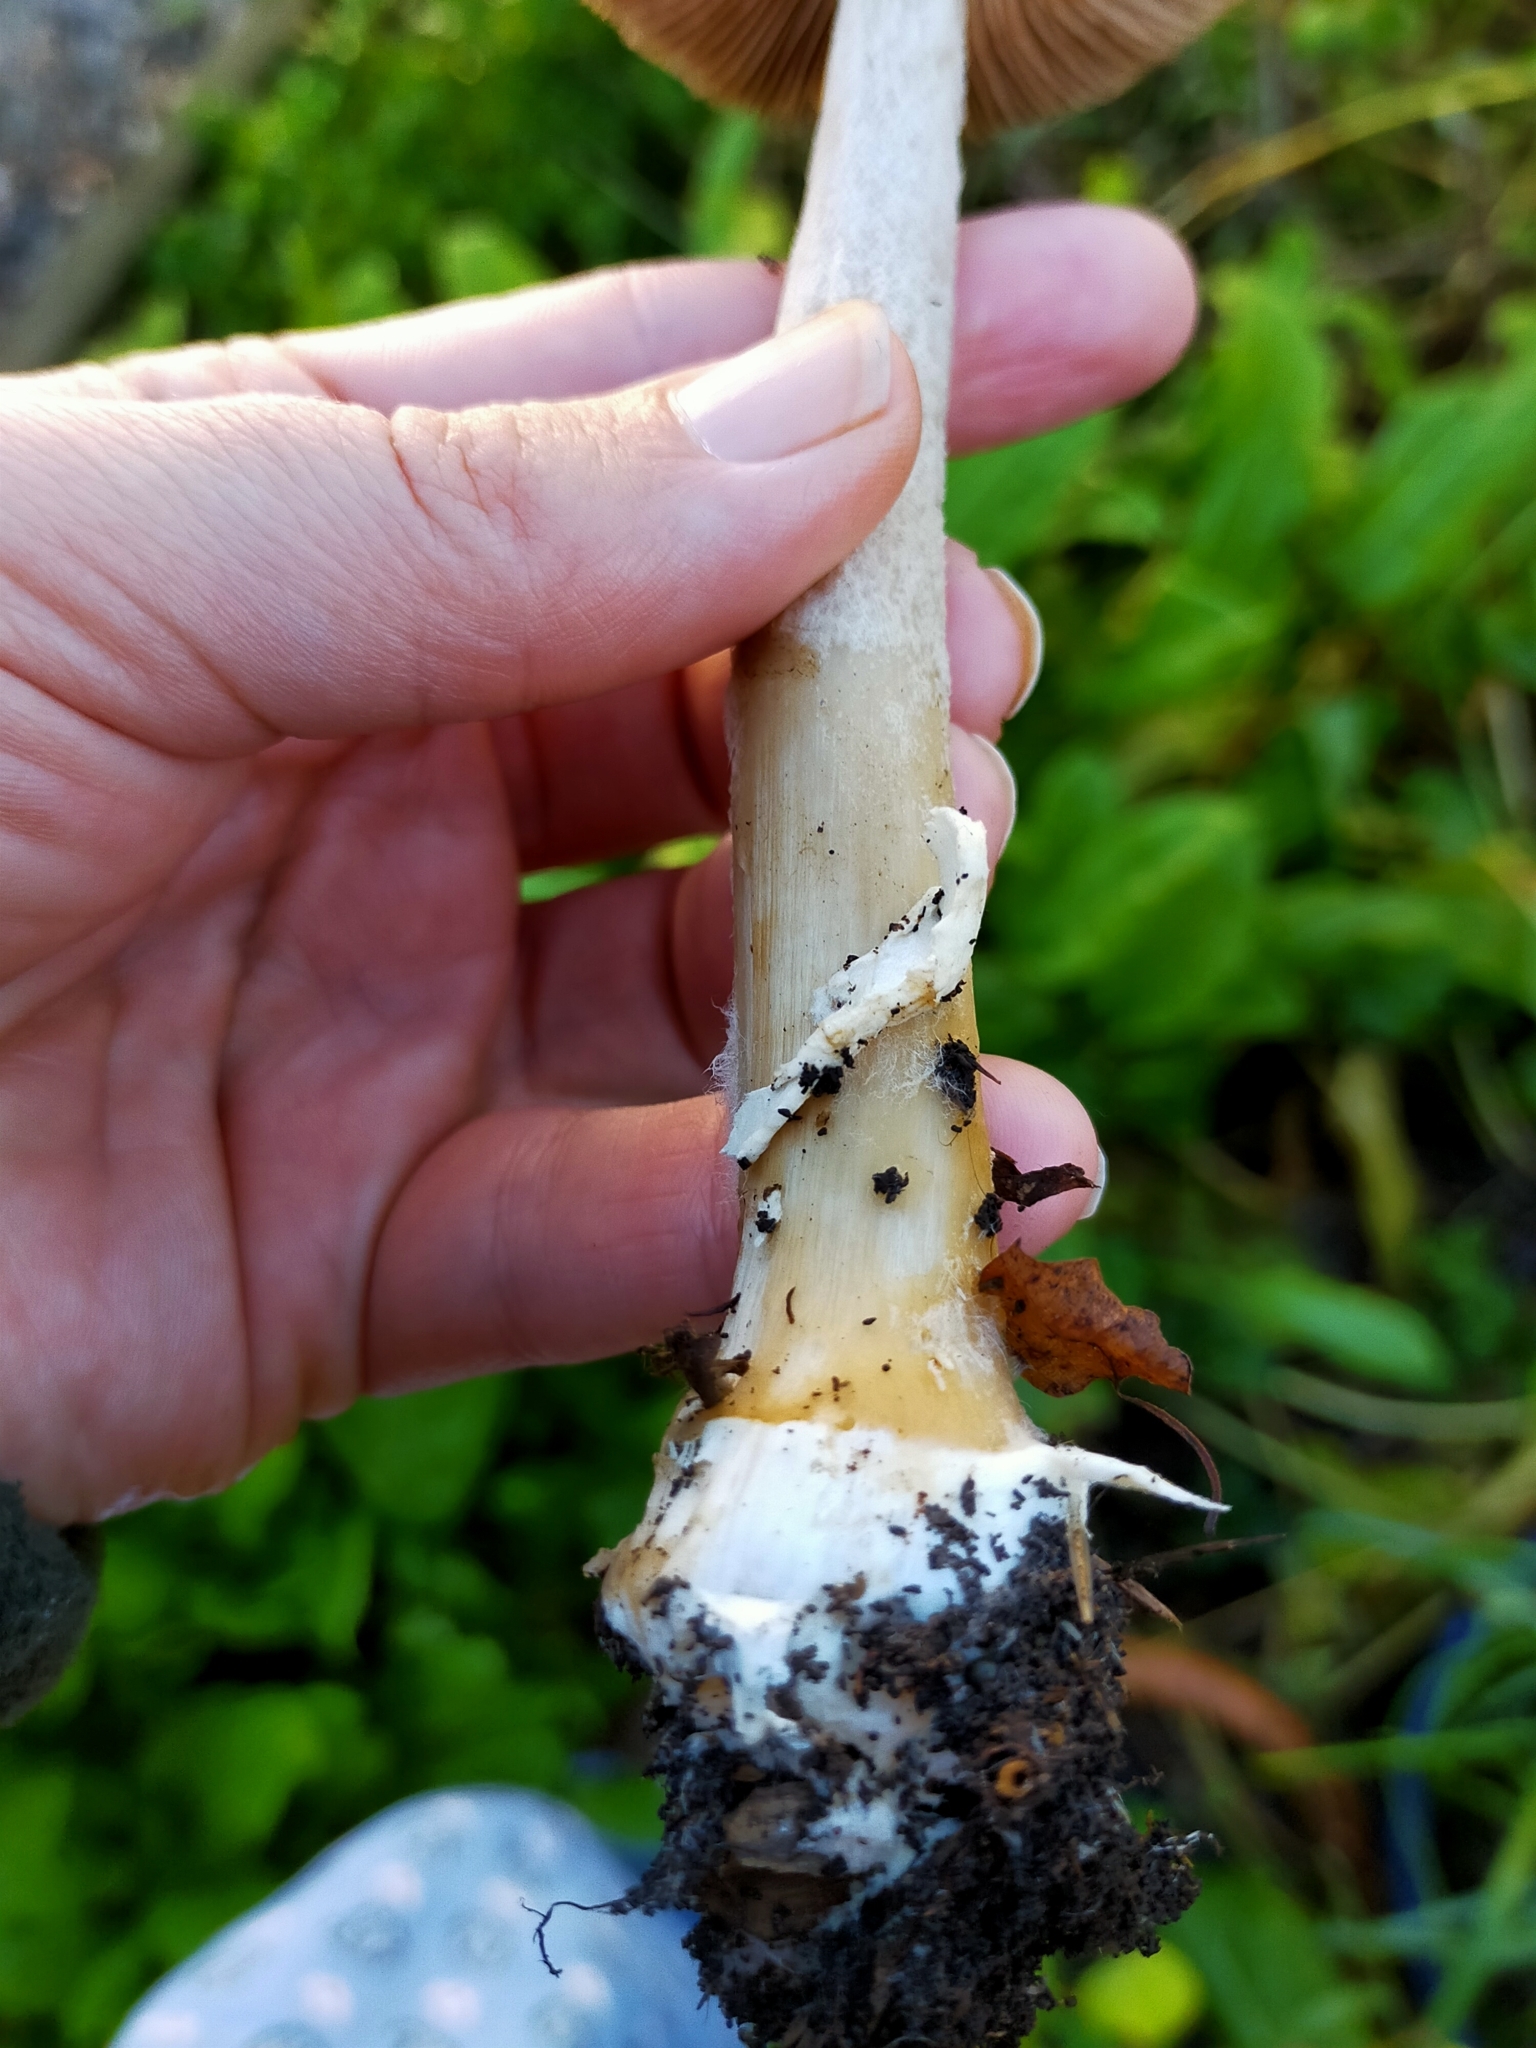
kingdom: Fungi
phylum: Basidiomycota
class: Agaricomycetes
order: Agaricales
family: Pluteaceae
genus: Volvopluteus
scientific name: Volvopluteus gloiocephalus
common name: Stubble rosegill
